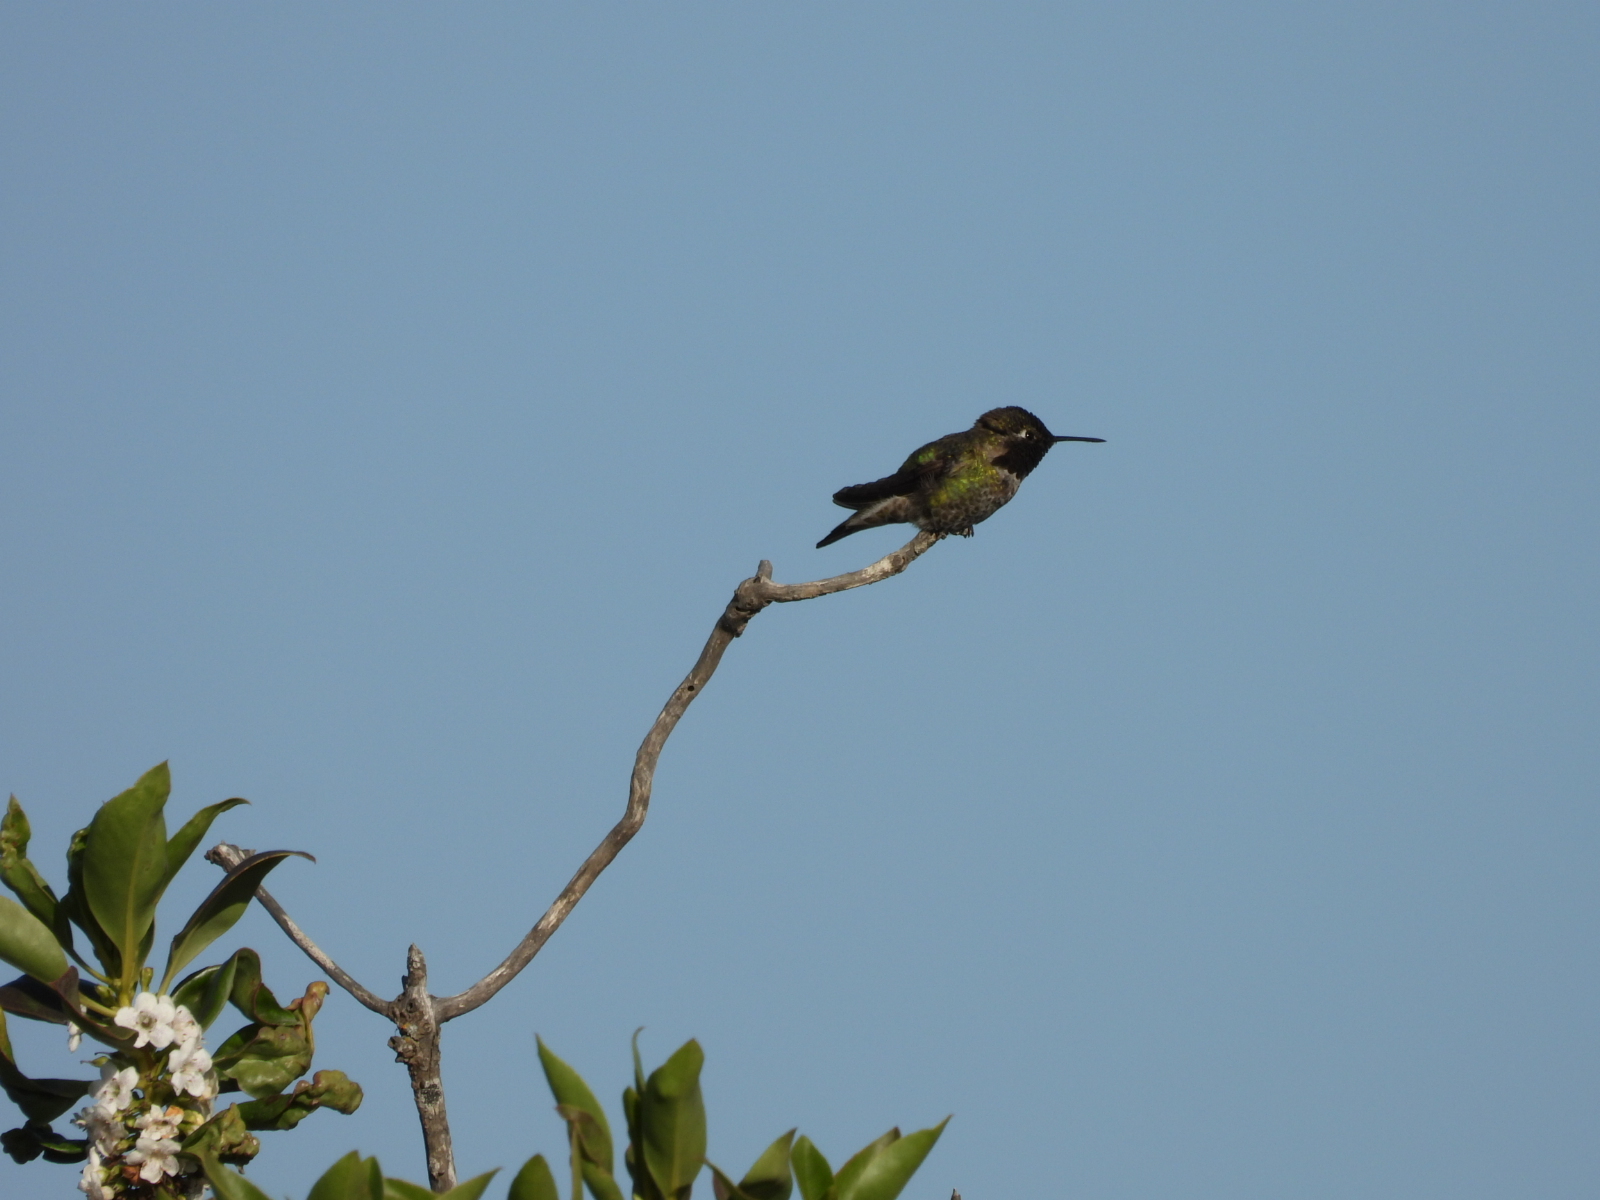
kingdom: Animalia
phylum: Chordata
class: Aves
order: Apodiformes
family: Trochilidae
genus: Calypte
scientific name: Calypte anna
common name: Anna's hummingbird
